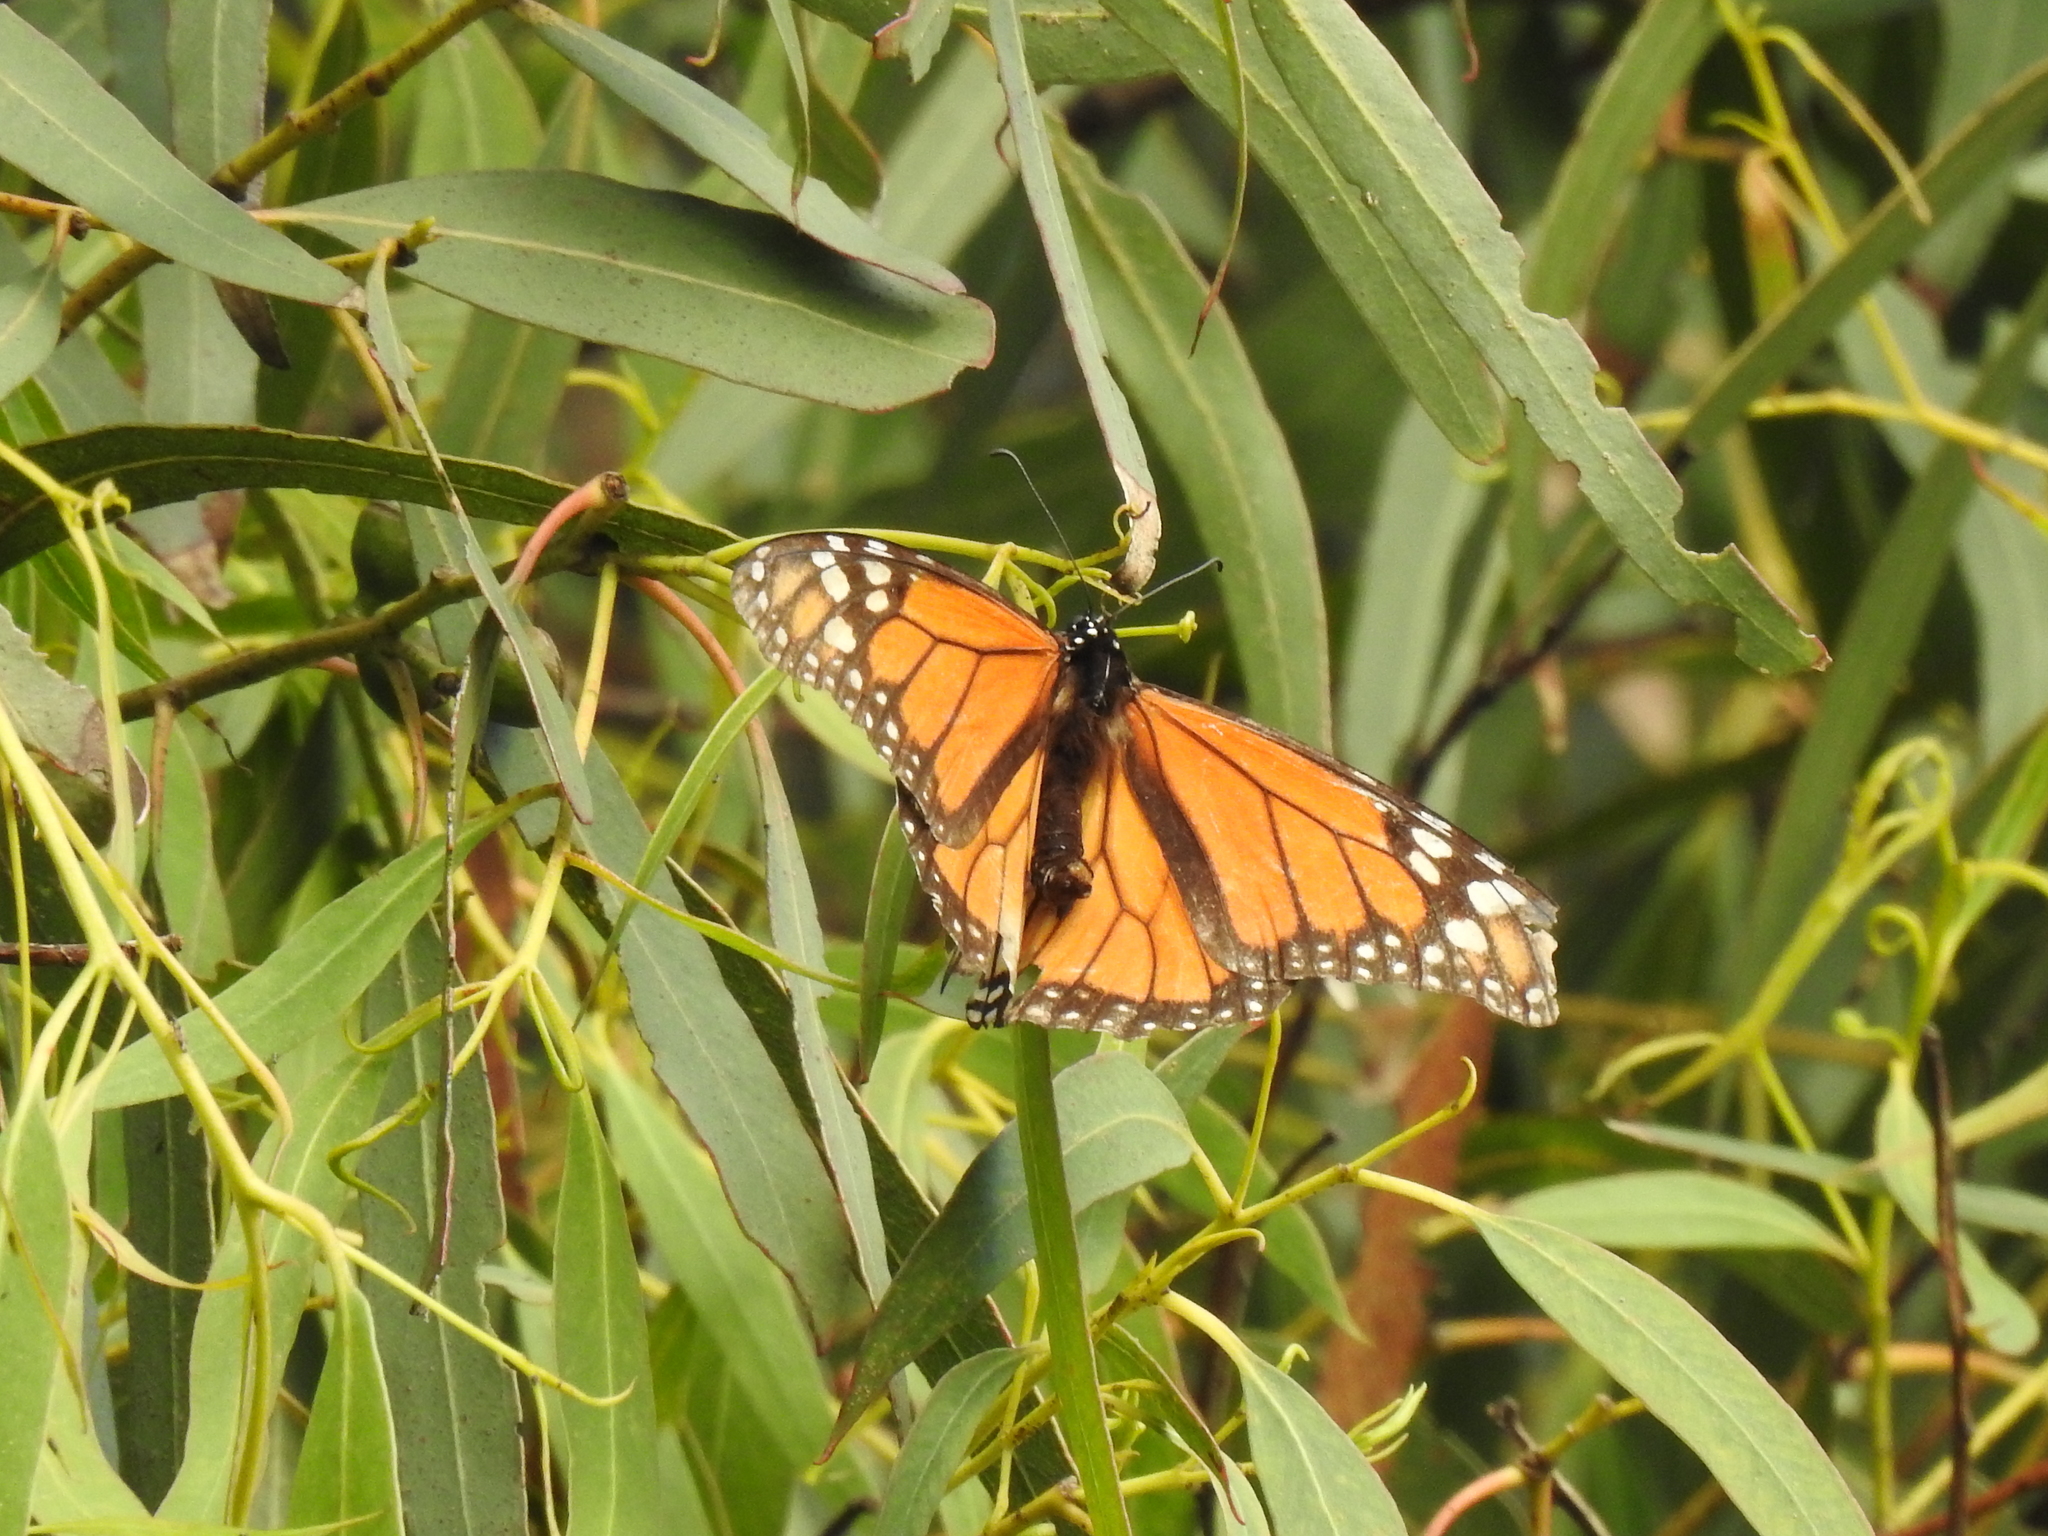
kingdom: Animalia
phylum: Arthropoda
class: Insecta
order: Lepidoptera
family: Nymphalidae
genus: Danaus
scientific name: Danaus plexippus
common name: Monarch
